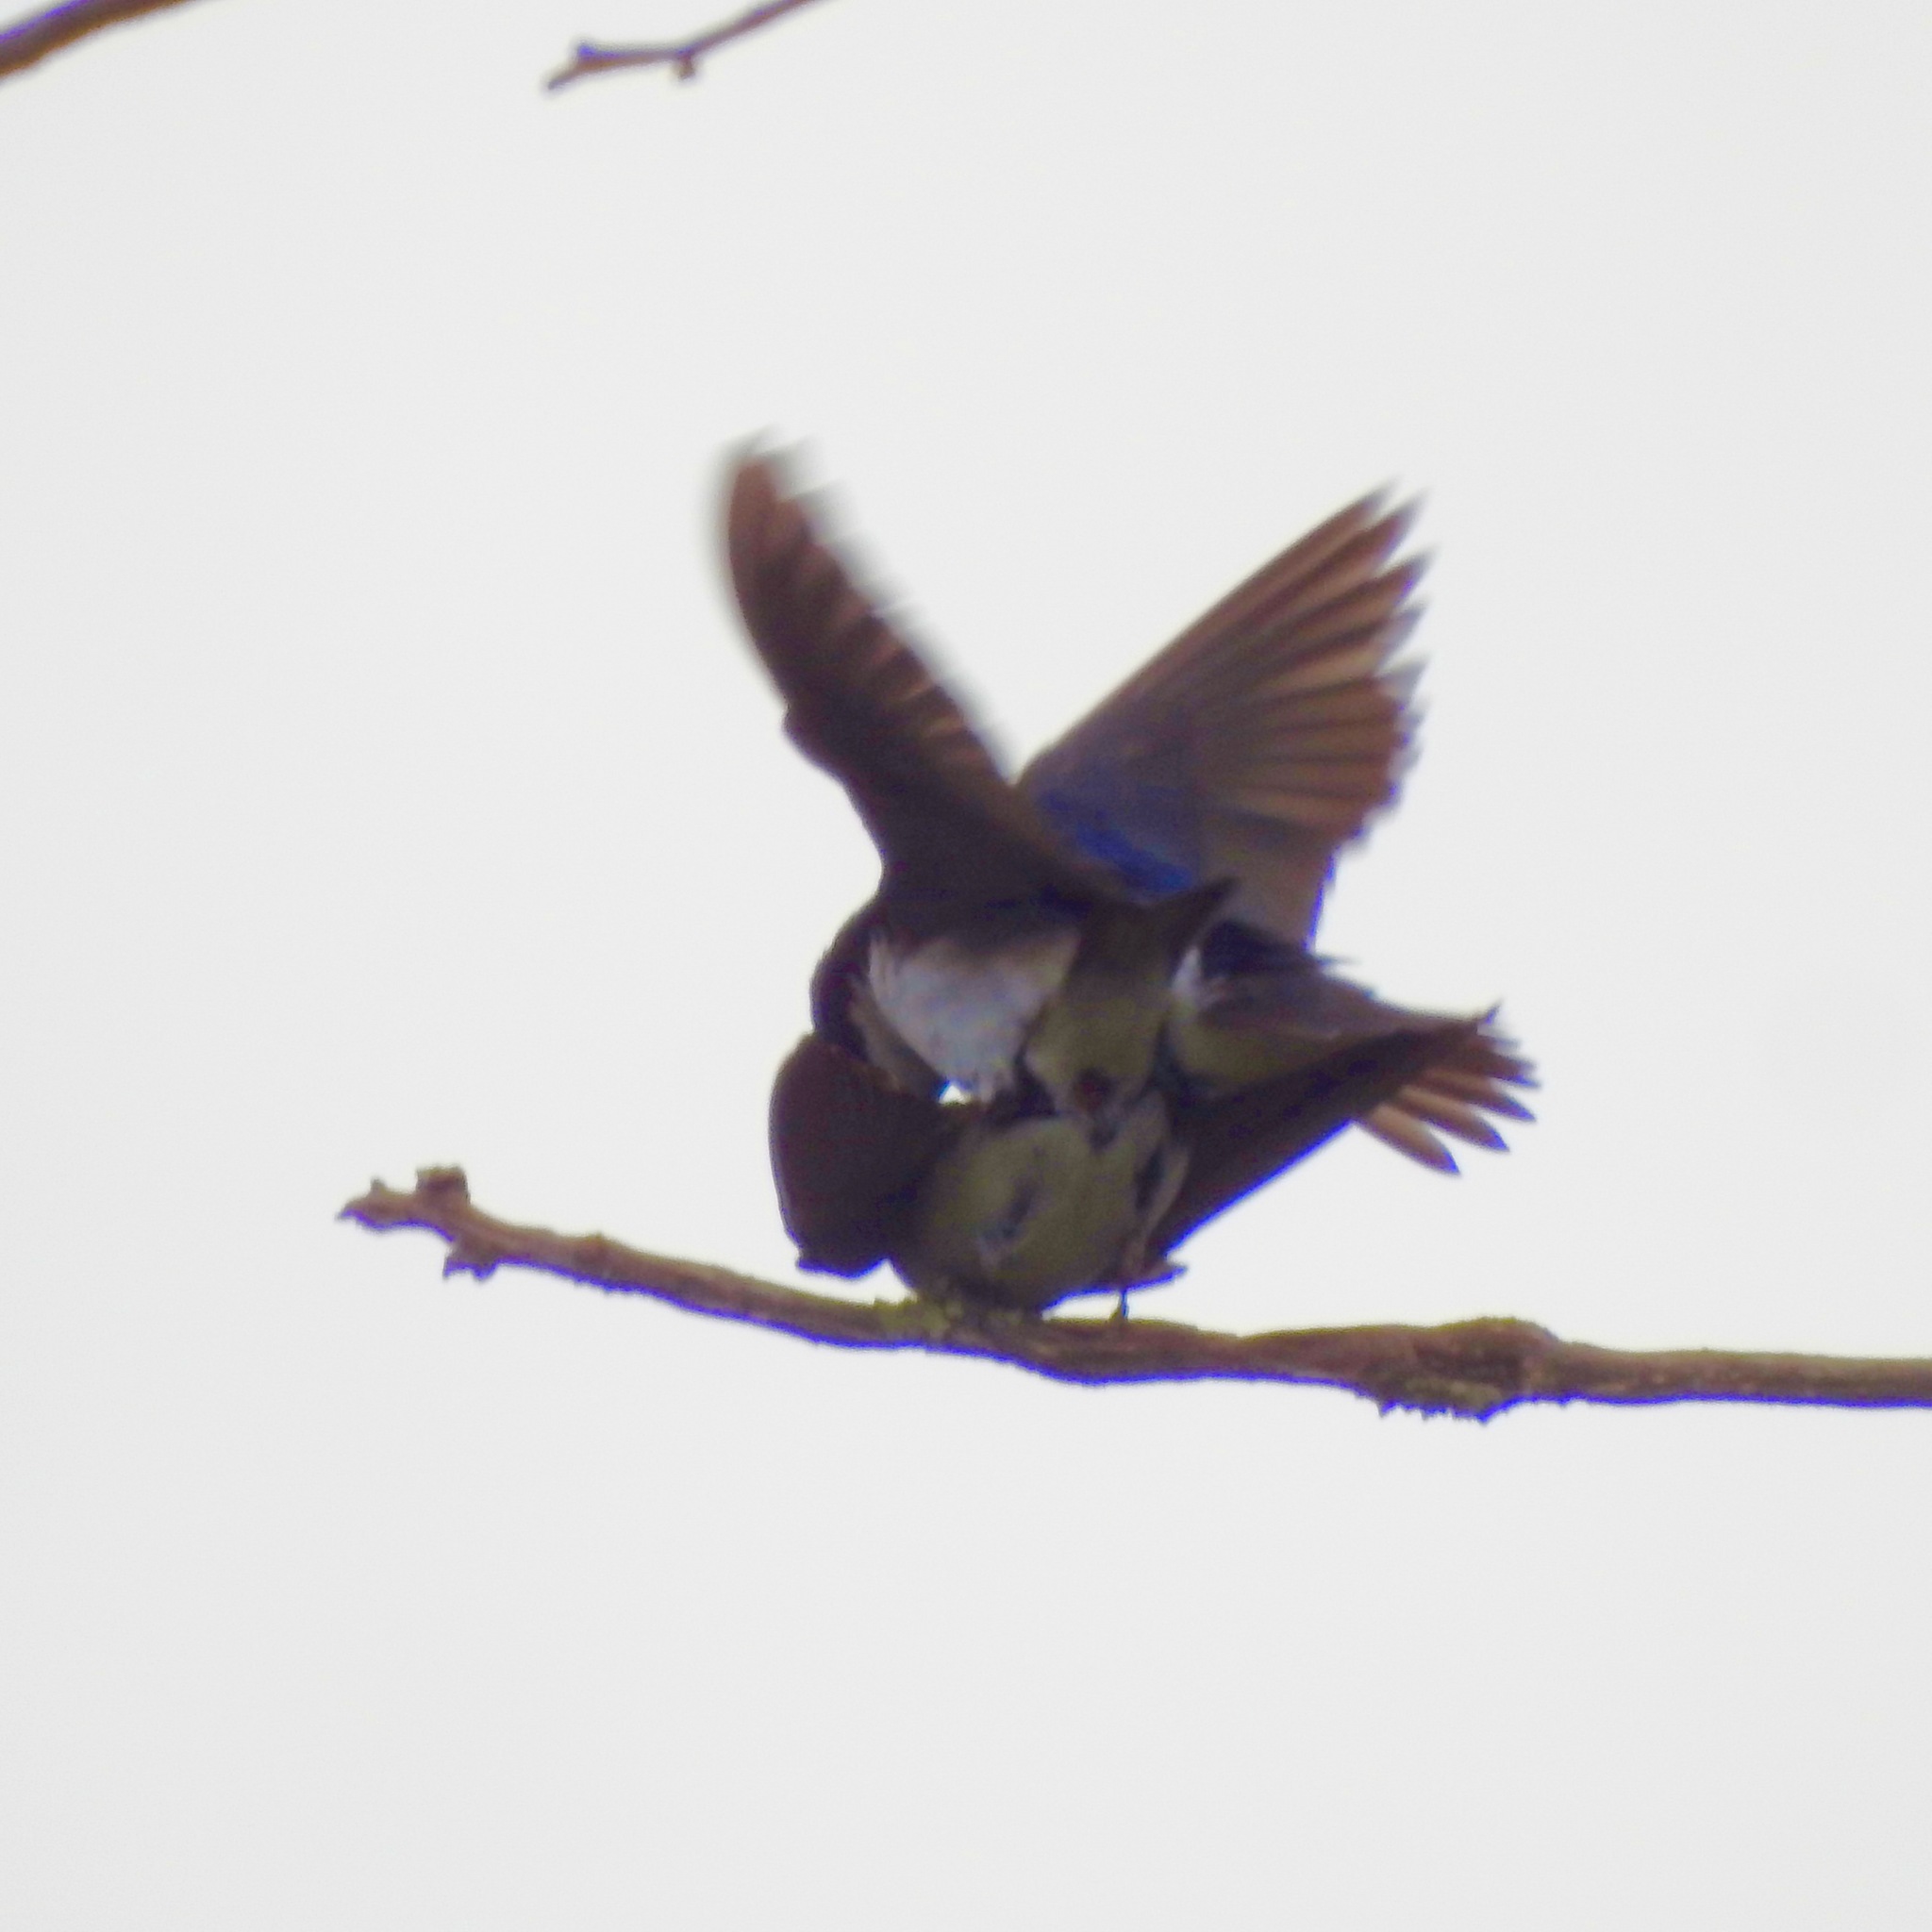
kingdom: Animalia
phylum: Chordata
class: Aves
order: Passeriformes
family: Hirundinidae
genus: Tachycineta
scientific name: Tachycineta bicolor
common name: Tree swallow
